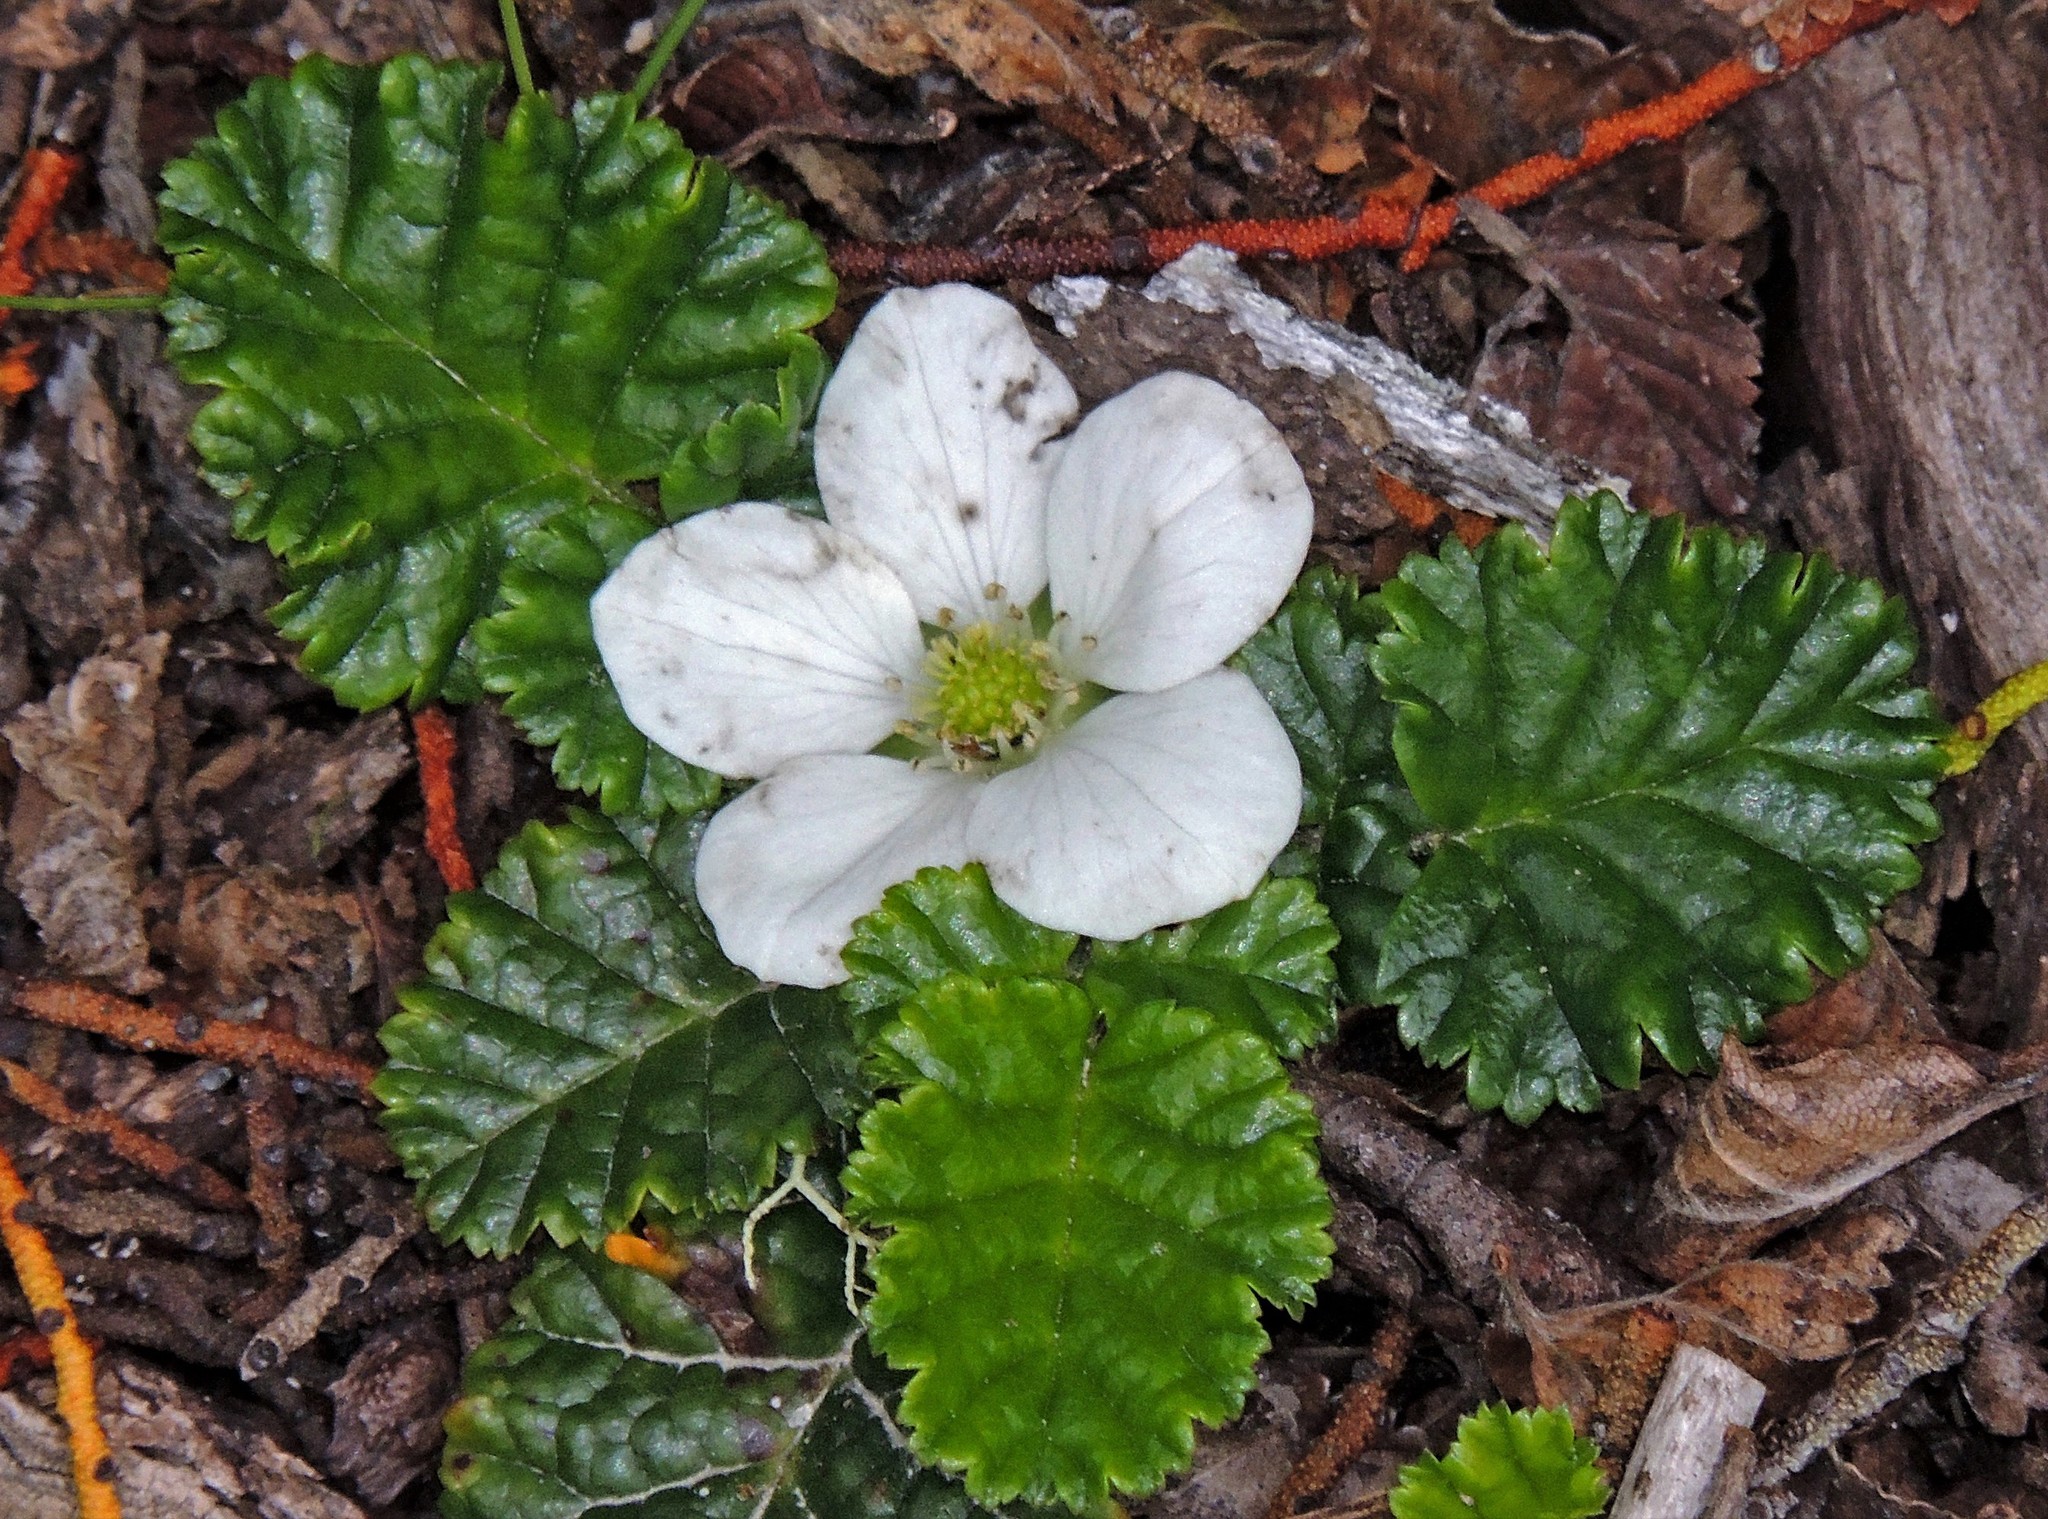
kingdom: Plantae
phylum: Tracheophyta
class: Magnoliopsida
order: Rosales
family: Rosaceae
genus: Rubus
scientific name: Rubus geoides
